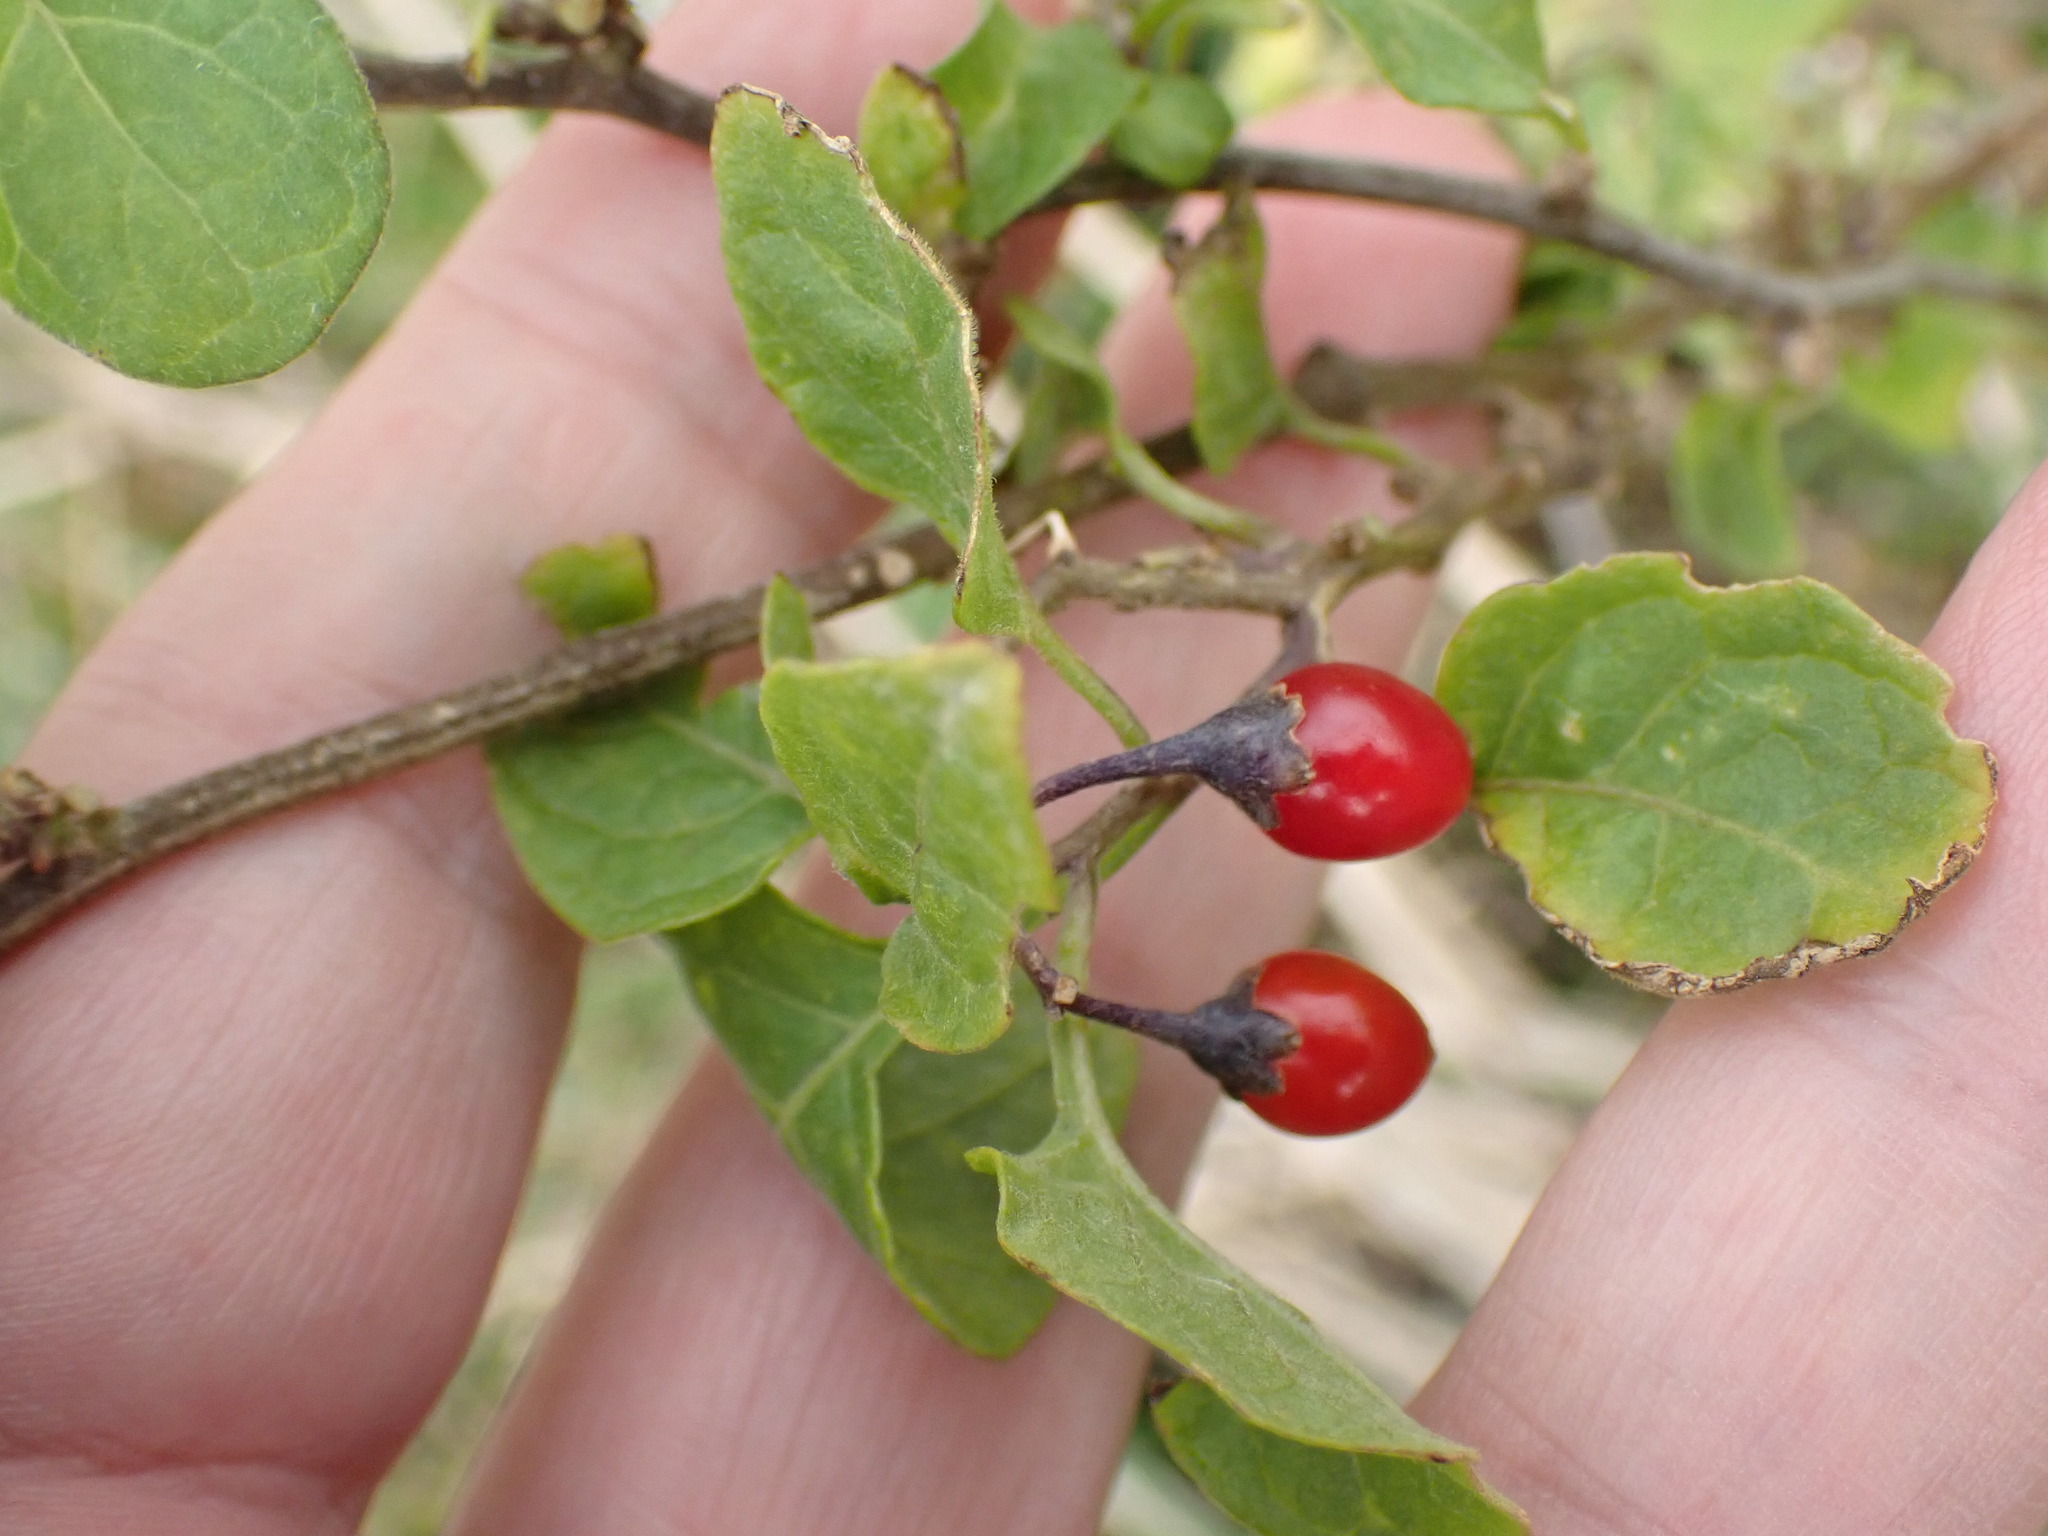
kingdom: Plantae
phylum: Tracheophyta
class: Magnoliopsida
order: Solanales
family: Solanaceae
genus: Solanum
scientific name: Solanum dulcamara
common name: Climbing nightshade
